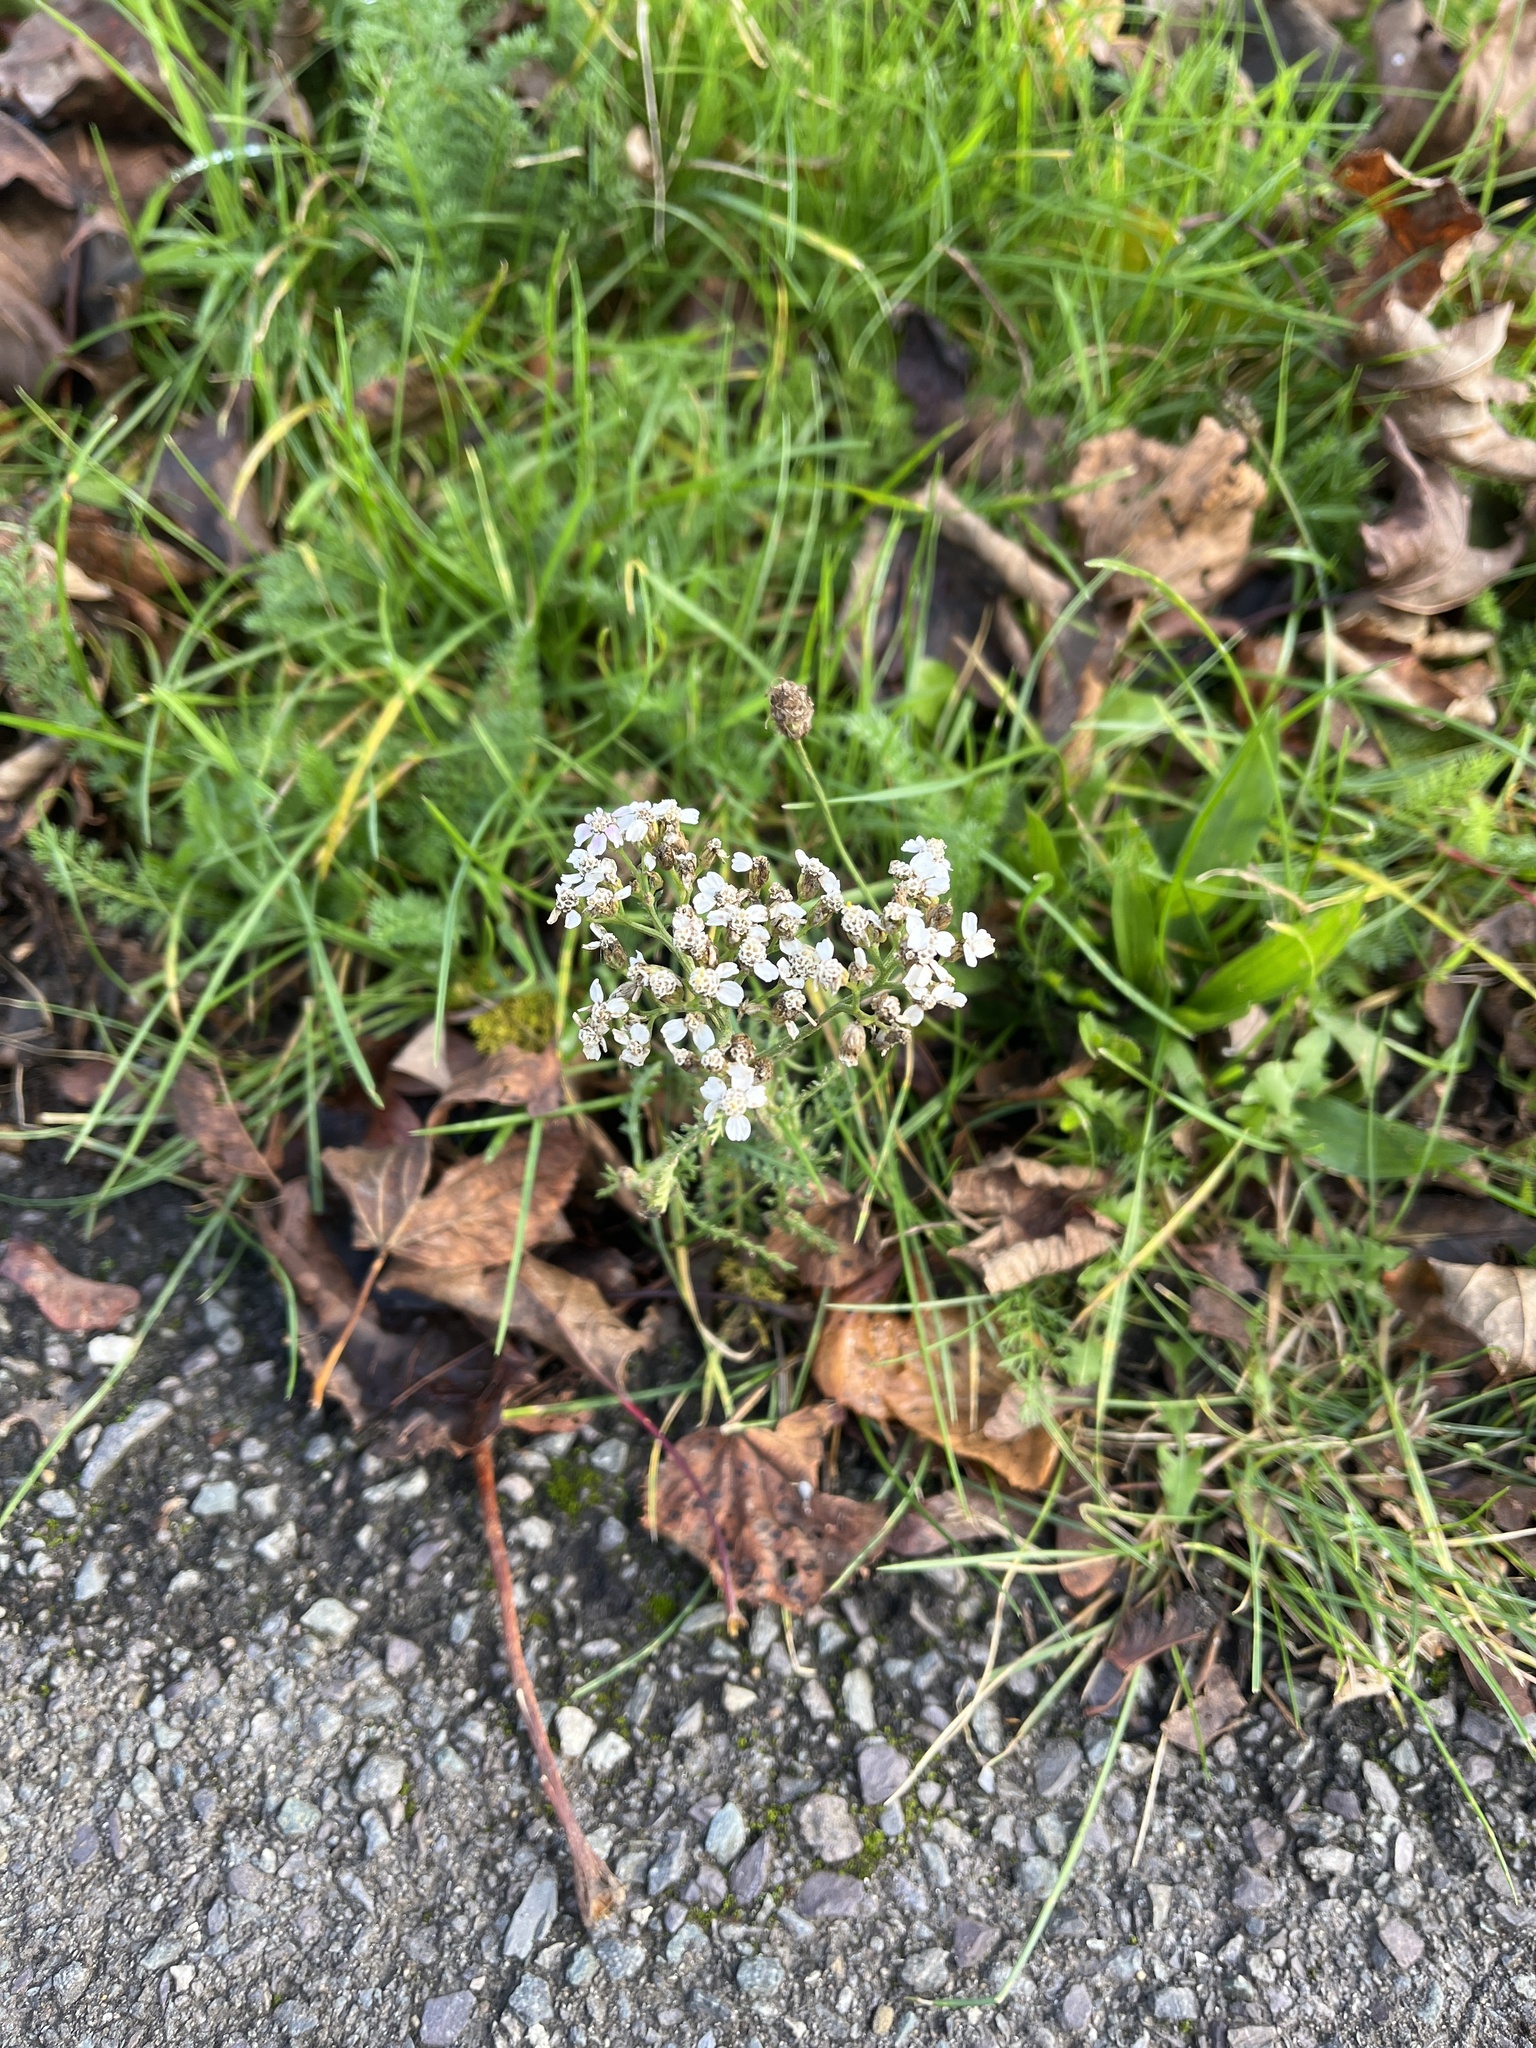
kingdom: Plantae
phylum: Tracheophyta
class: Magnoliopsida
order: Asterales
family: Asteraceae
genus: Achillea
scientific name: Achillea millefolium
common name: Yarrow
